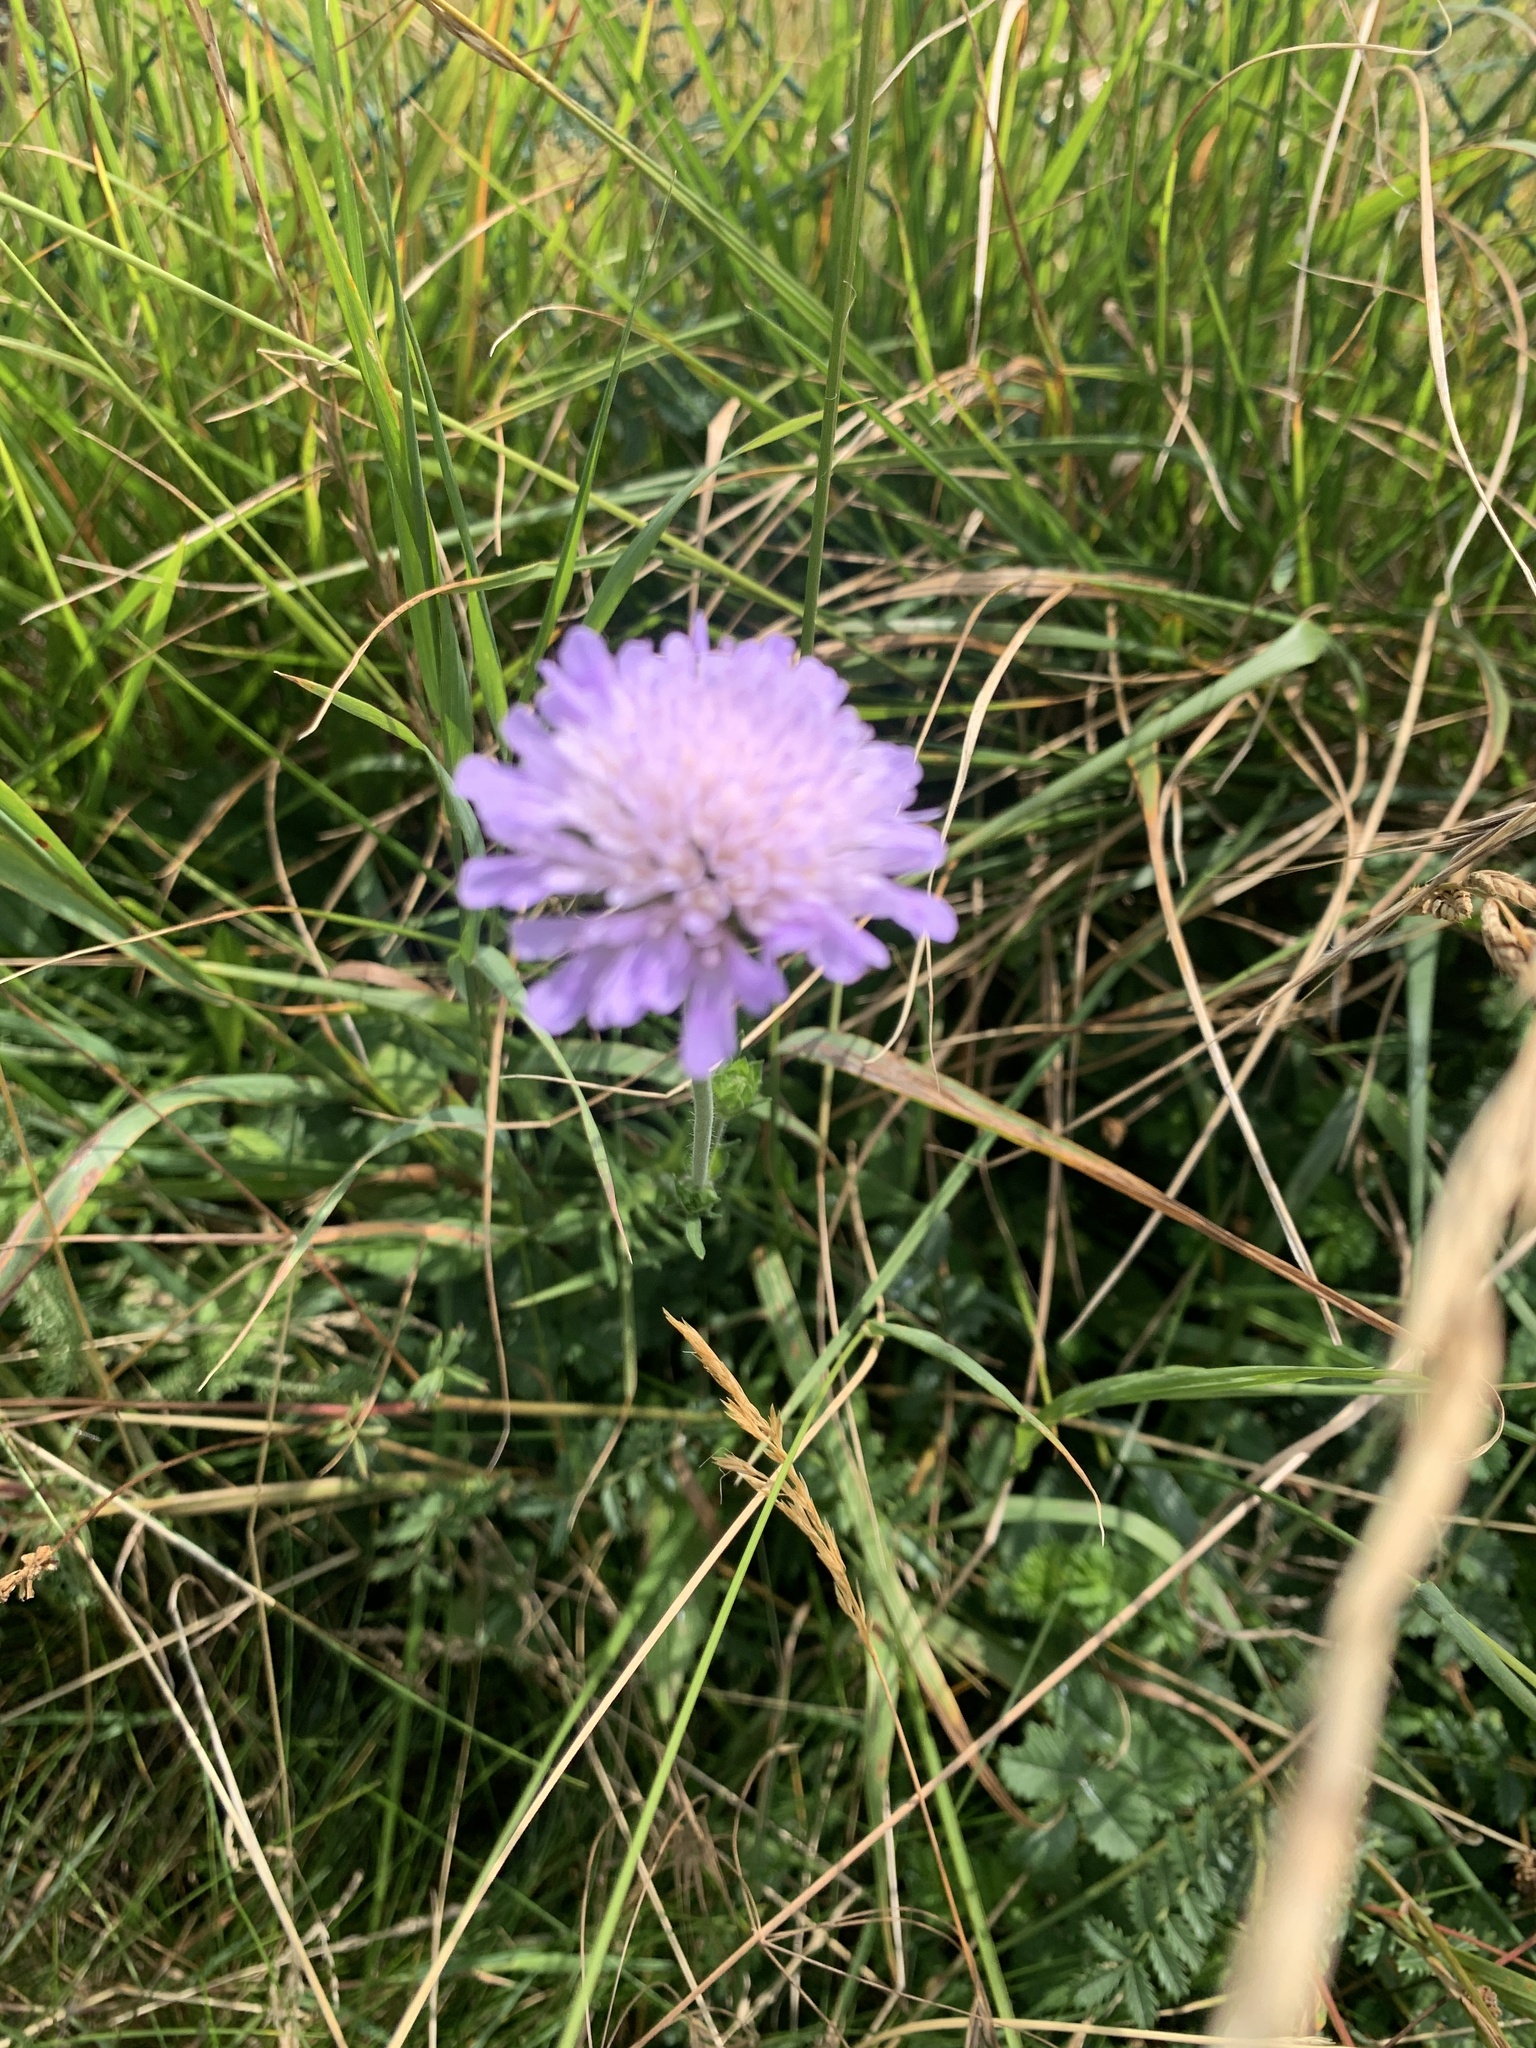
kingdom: Plantae
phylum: Tracheophyta
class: Magnoliopsida
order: Dipsacales
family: Caprifoliaceae
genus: Knautia
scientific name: Knautia arvensis
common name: Field scabiosa
